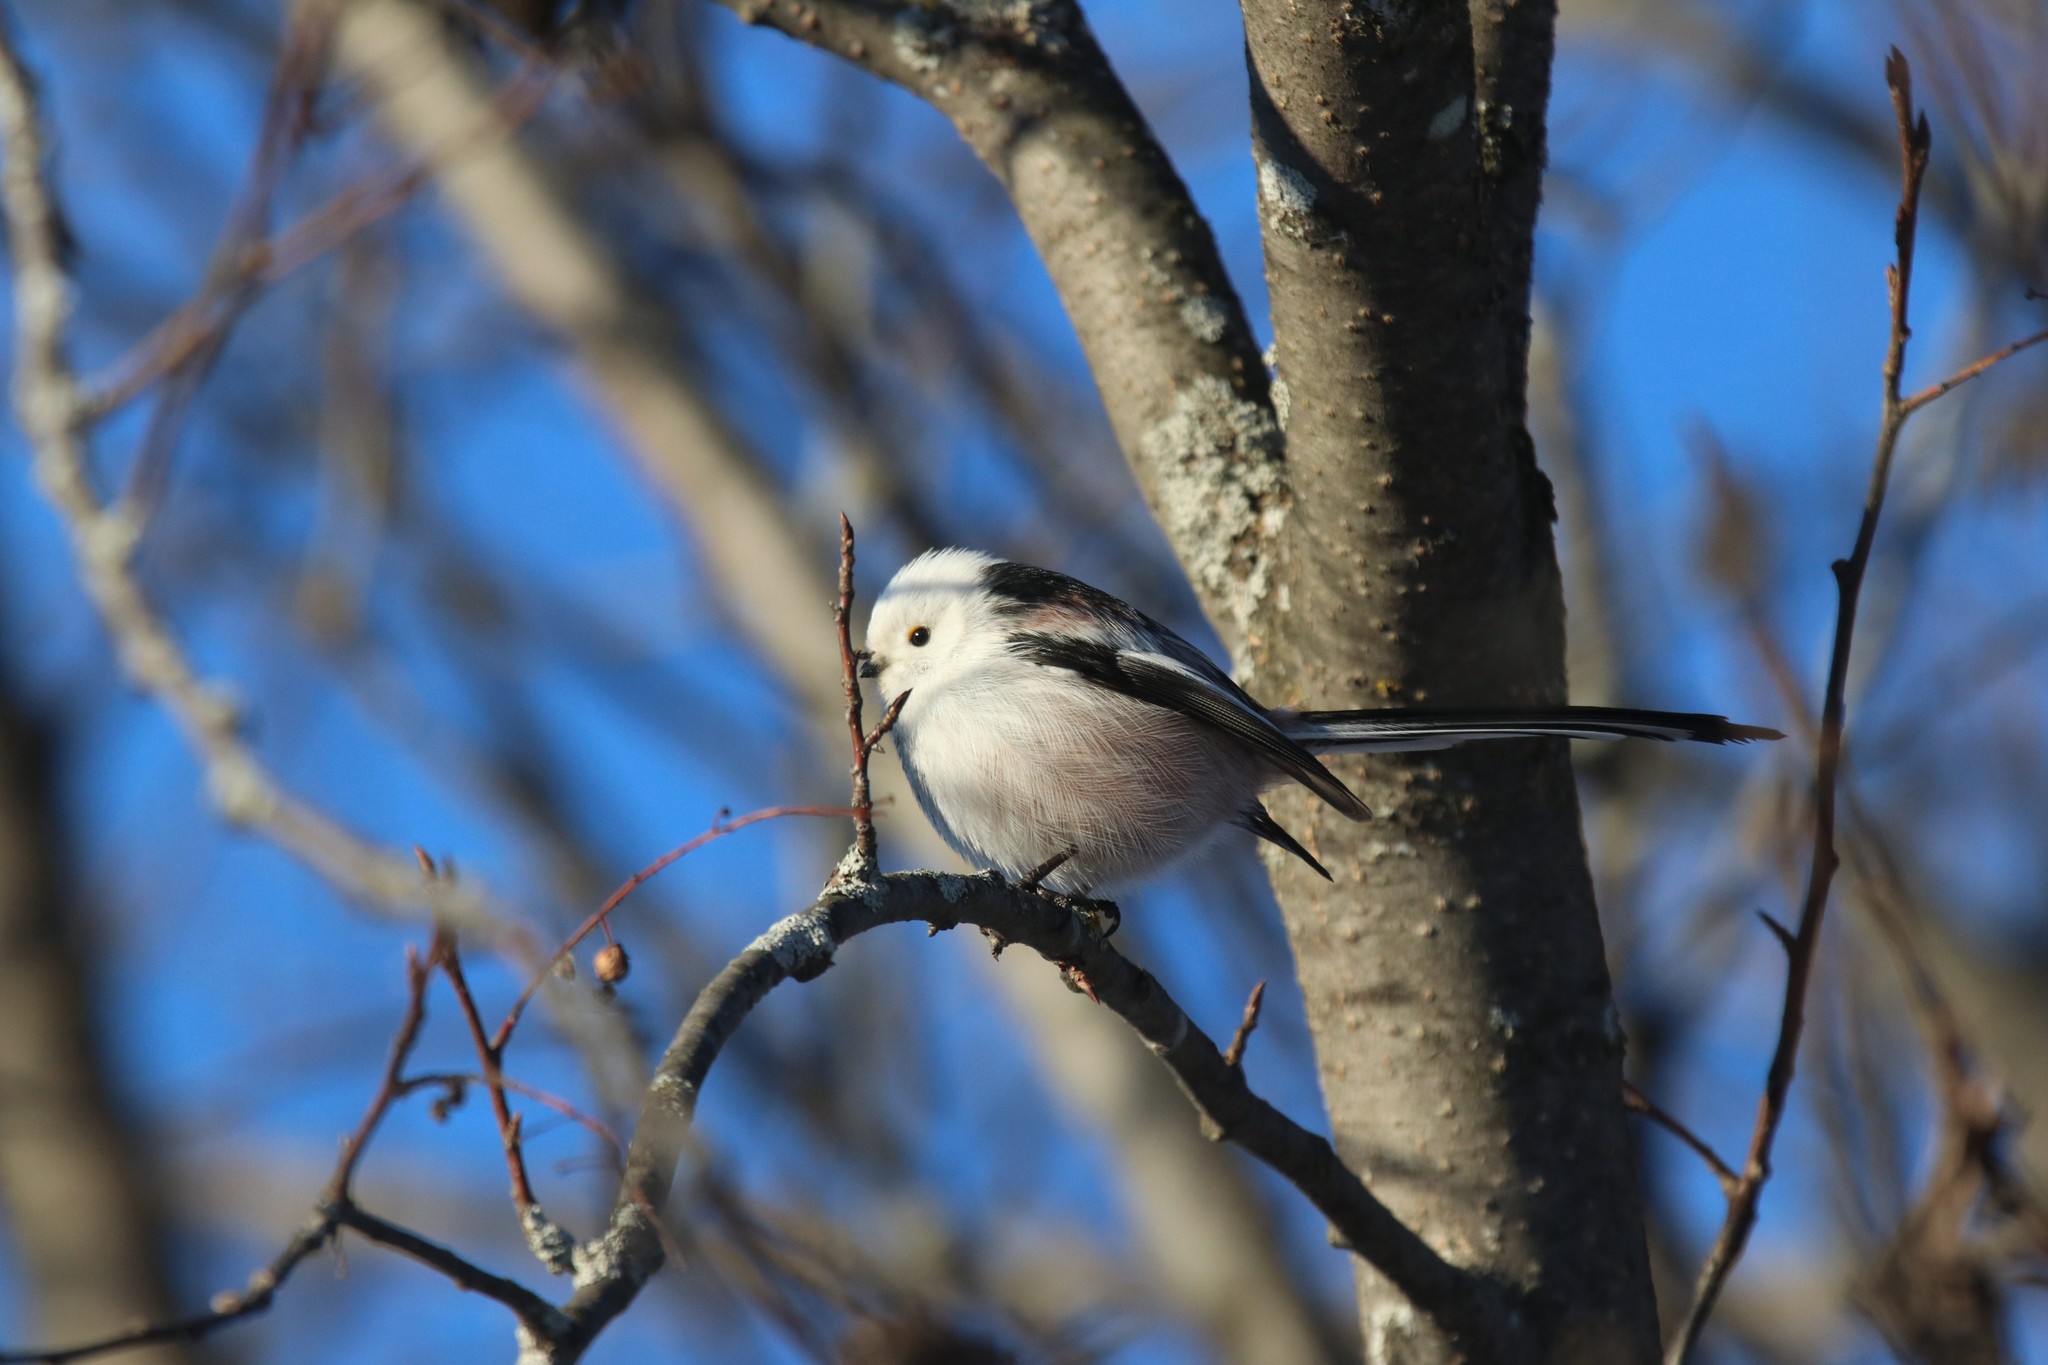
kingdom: Animalia
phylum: Chordata
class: Aves
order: Passeriformes
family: Aegithalidae
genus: Aegithalos
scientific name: Aegithalos caudatus
